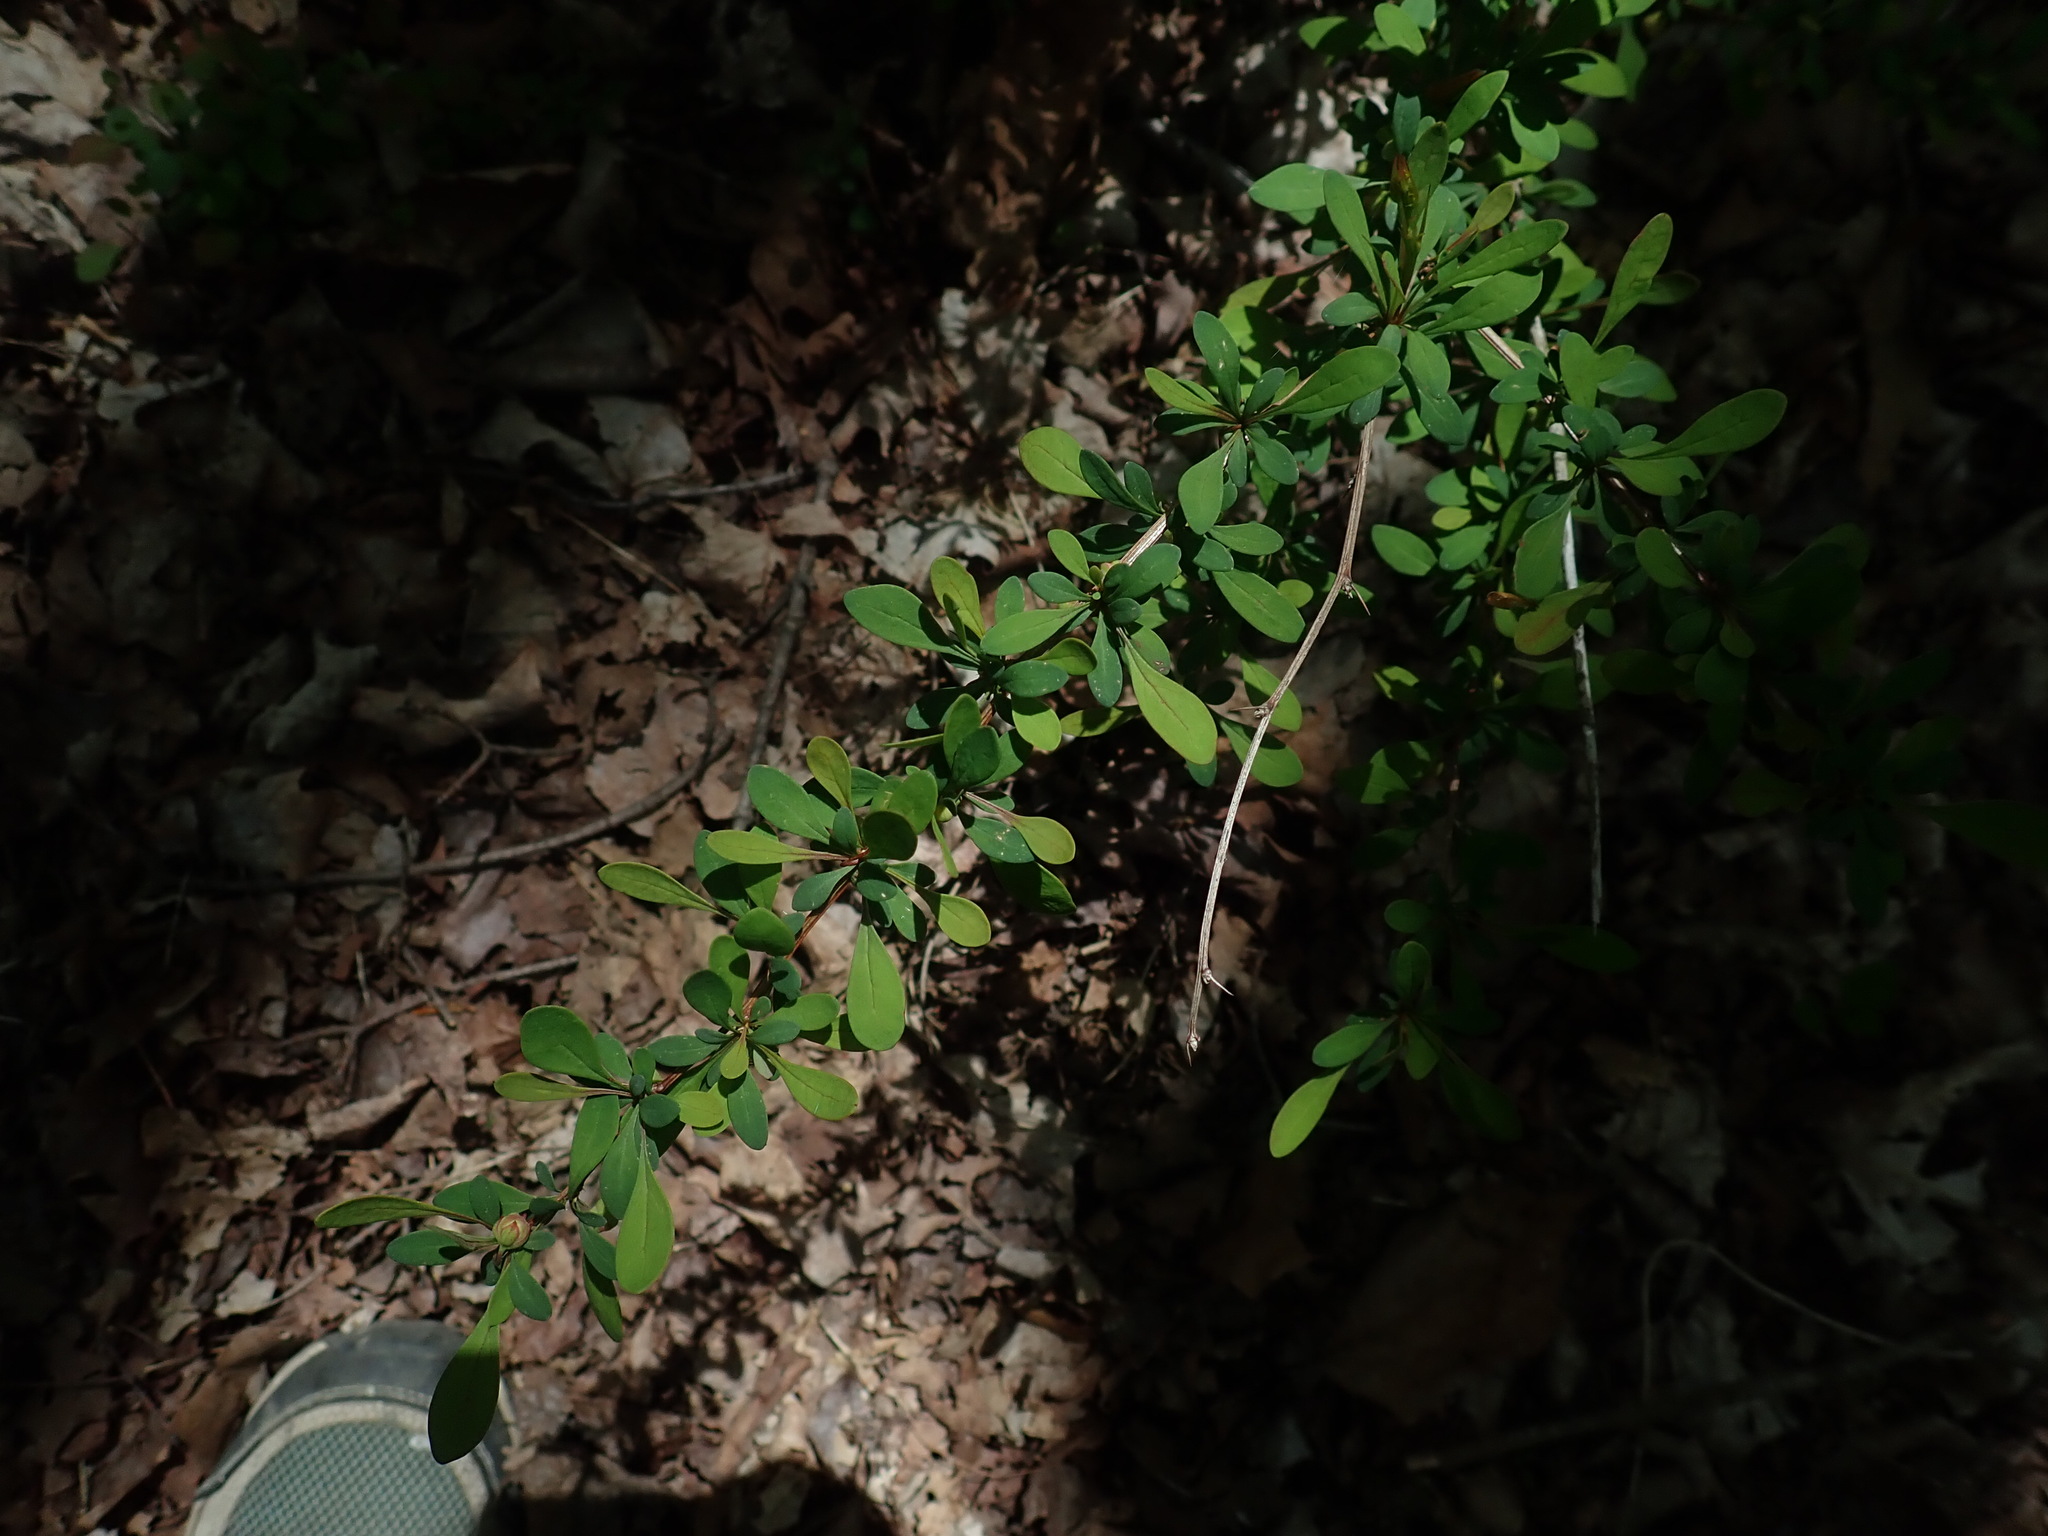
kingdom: Plantae
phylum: Tracheophyta
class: Magnoliopsida
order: Ranunculales
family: Berberidaceae
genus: Berberis
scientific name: Berberis thunbergii
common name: Japanese barberry
